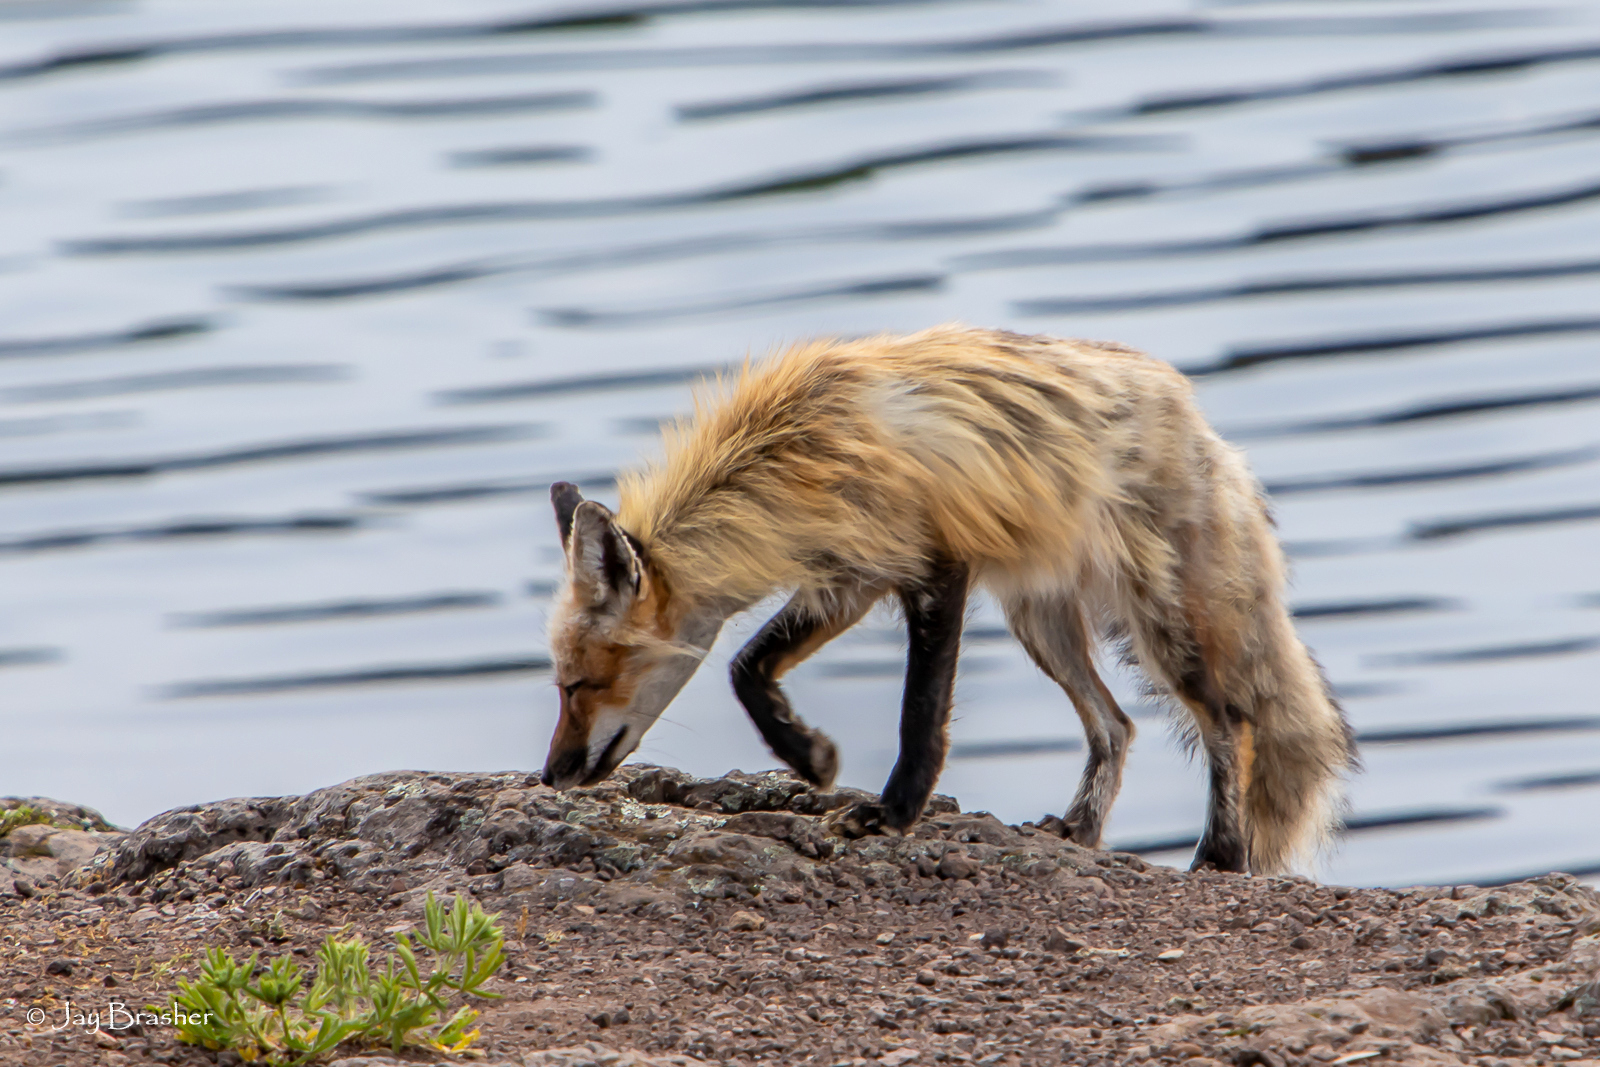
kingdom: Animalia
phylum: Chordata
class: Mammalia
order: Carnivora
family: Canidae
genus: Vulpes
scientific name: Vulpes vulpes
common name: Red fox
